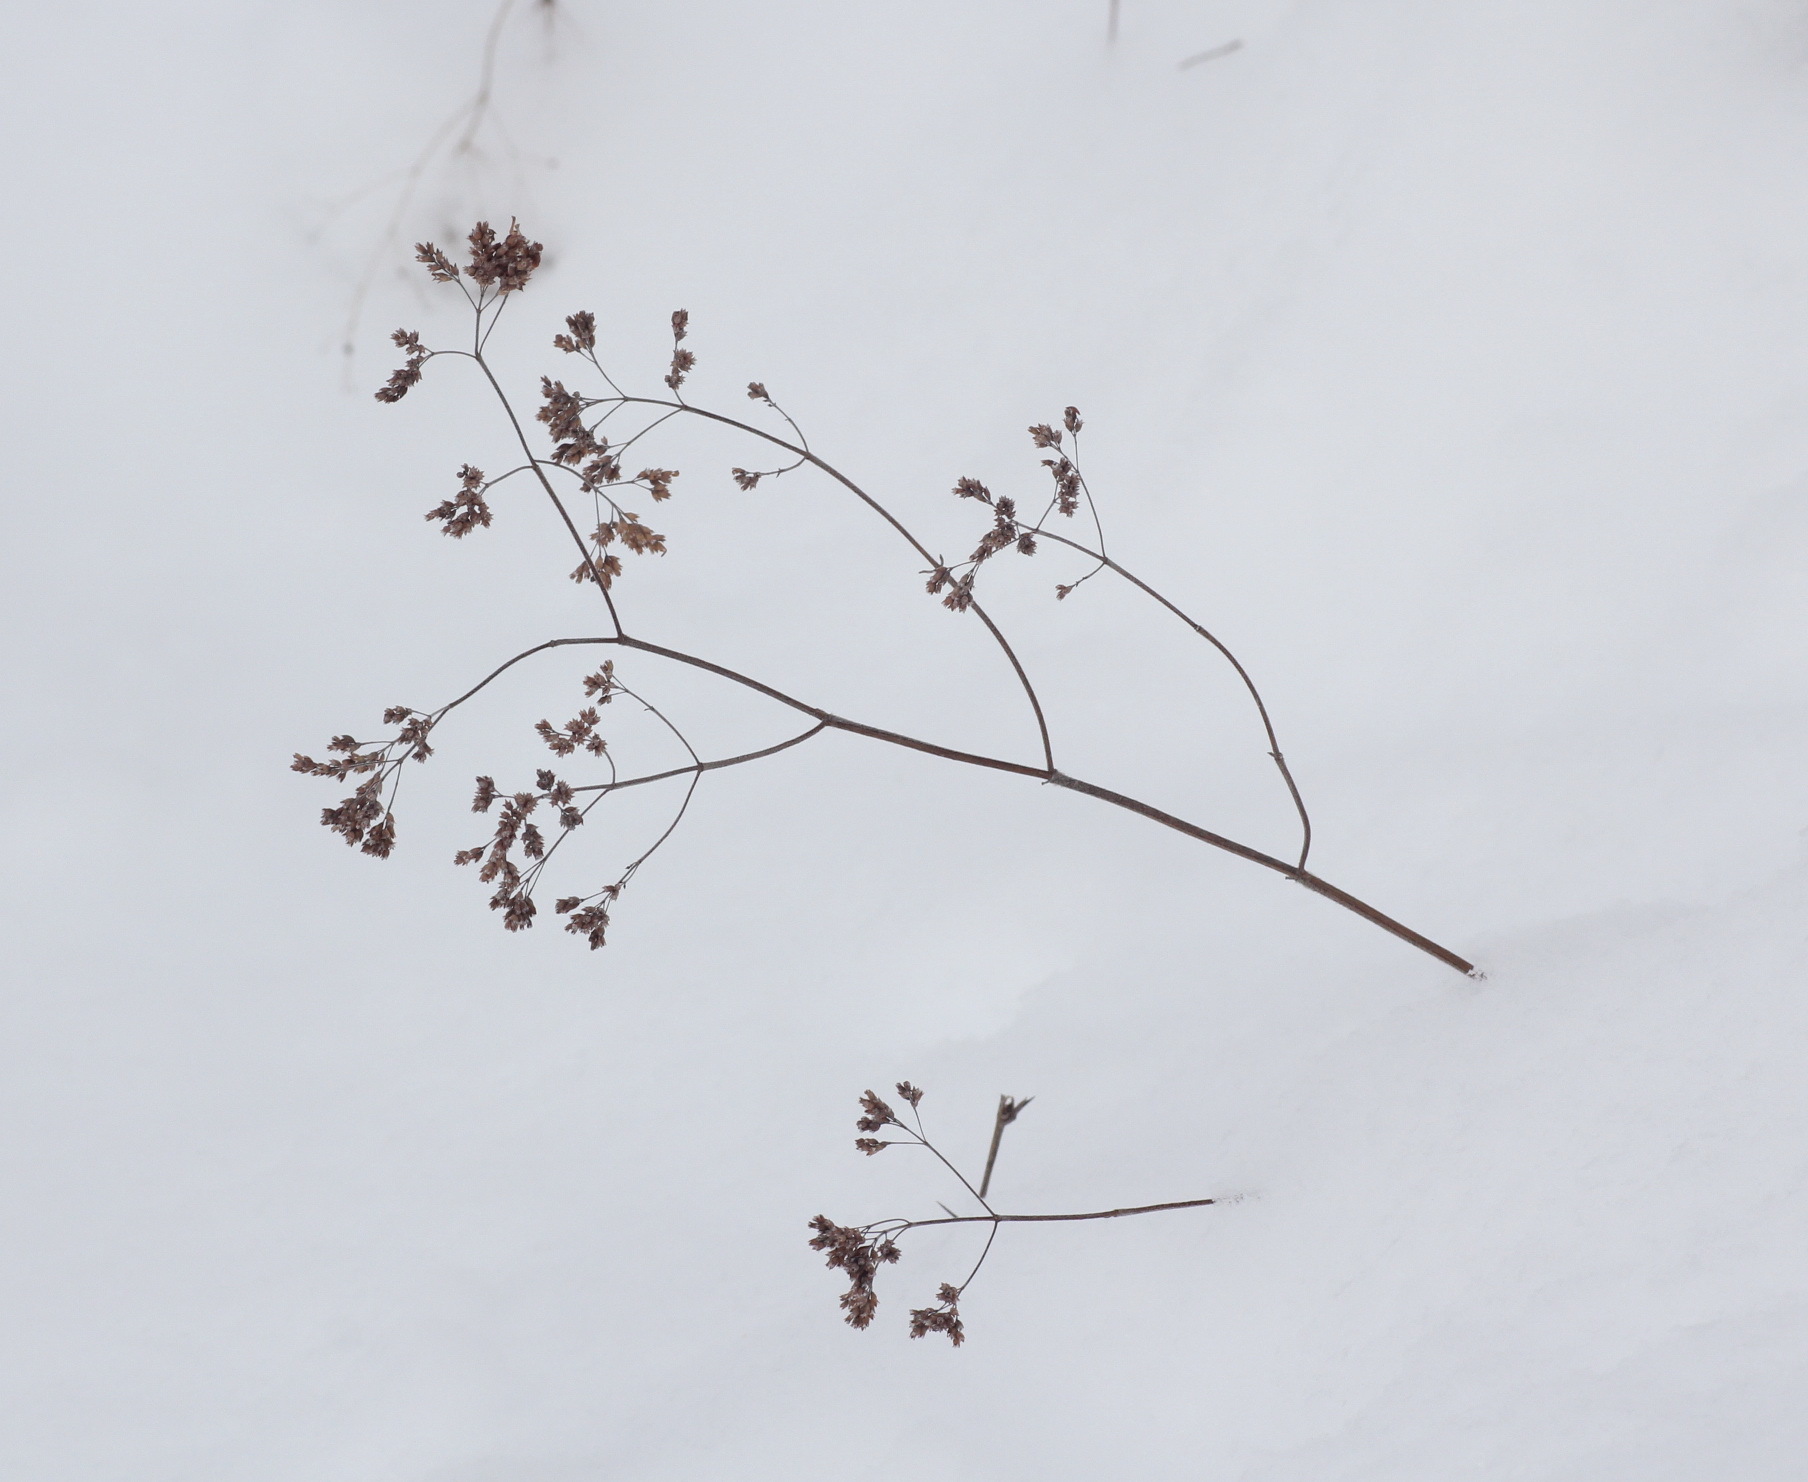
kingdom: Plantae
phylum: Tracheophyta
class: Magnoliopsida
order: Lamiales
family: Lamiaceae
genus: Origanum
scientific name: Origanum vulgare
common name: Wild marjoram
